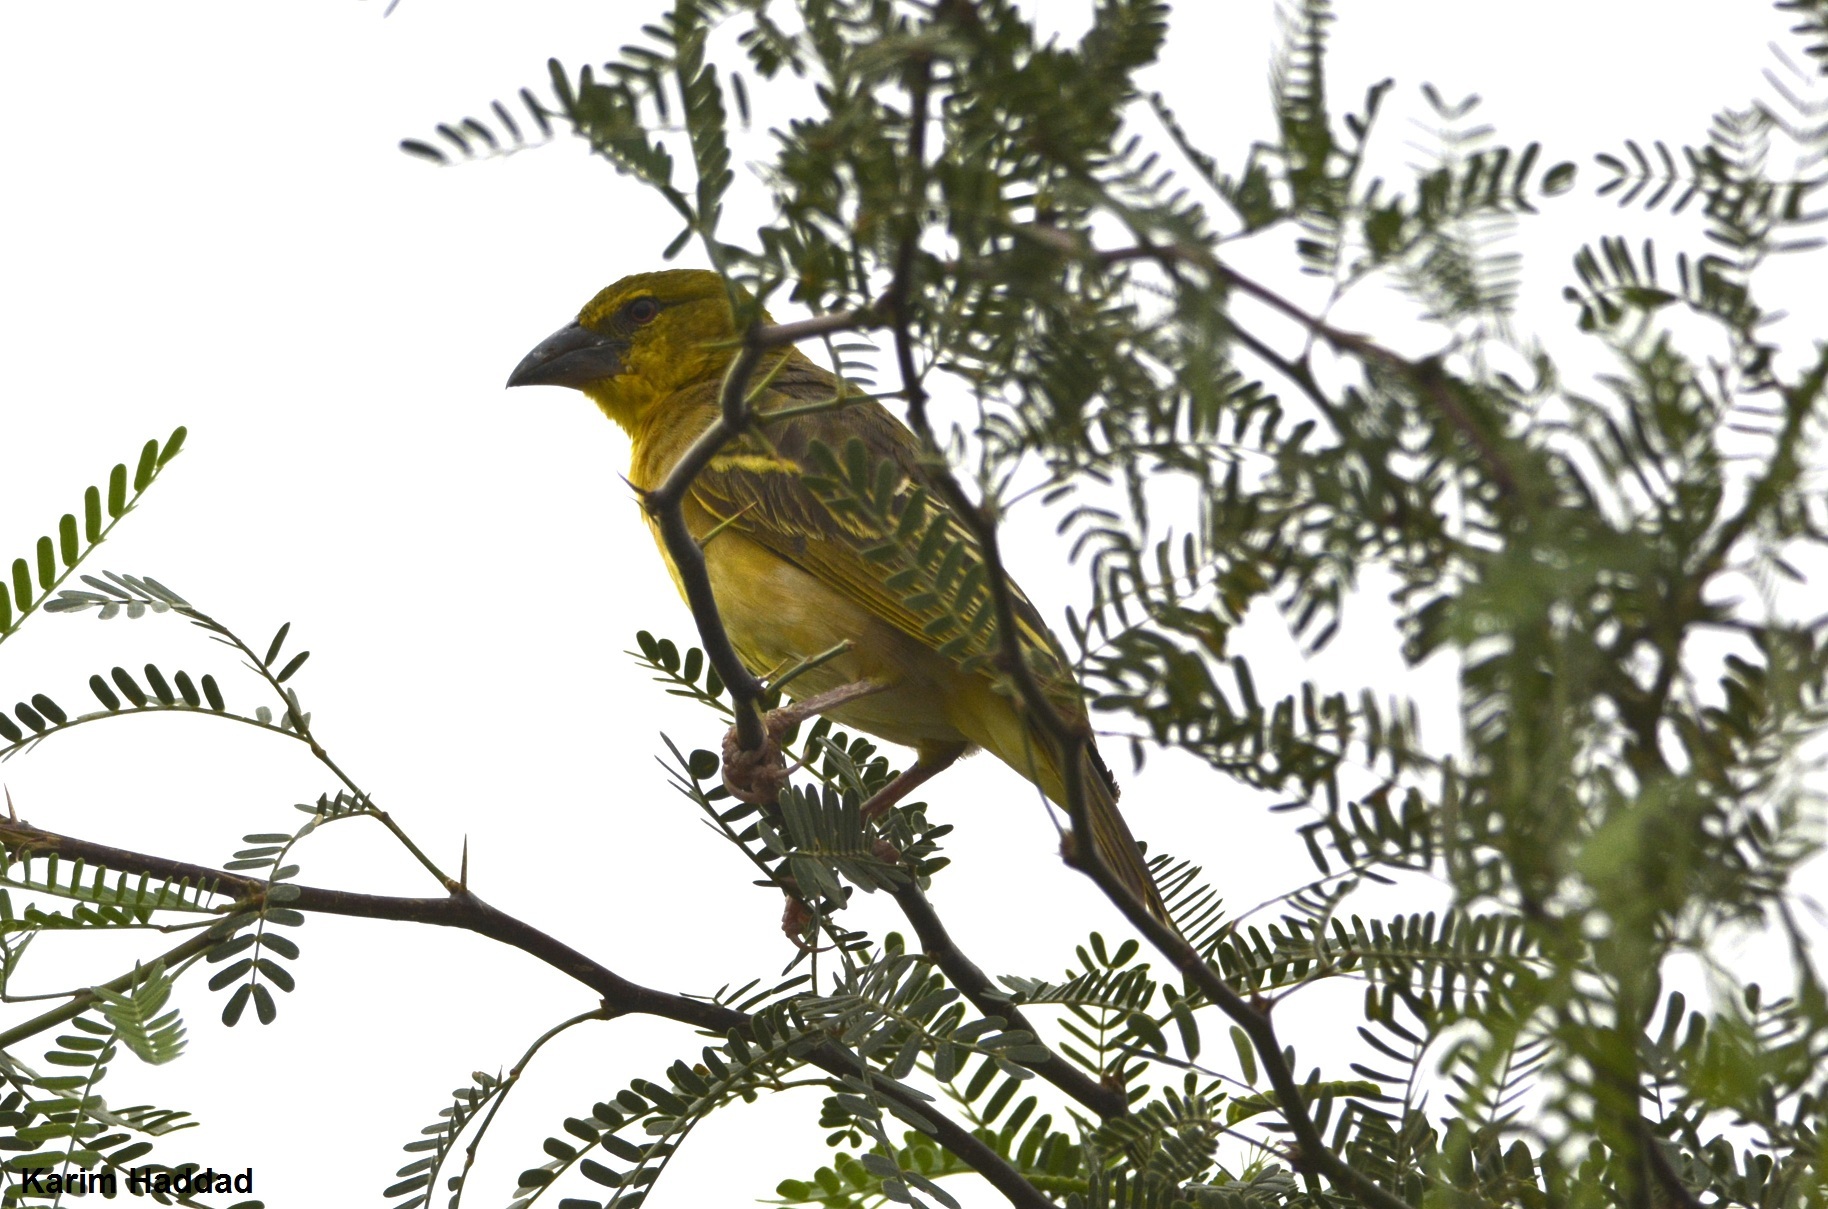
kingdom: Animalia
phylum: Chordata
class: Aves
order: Passeriformes
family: Ploceidae
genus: Ploceus
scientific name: Ploceus cucullatus
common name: Village weaver
